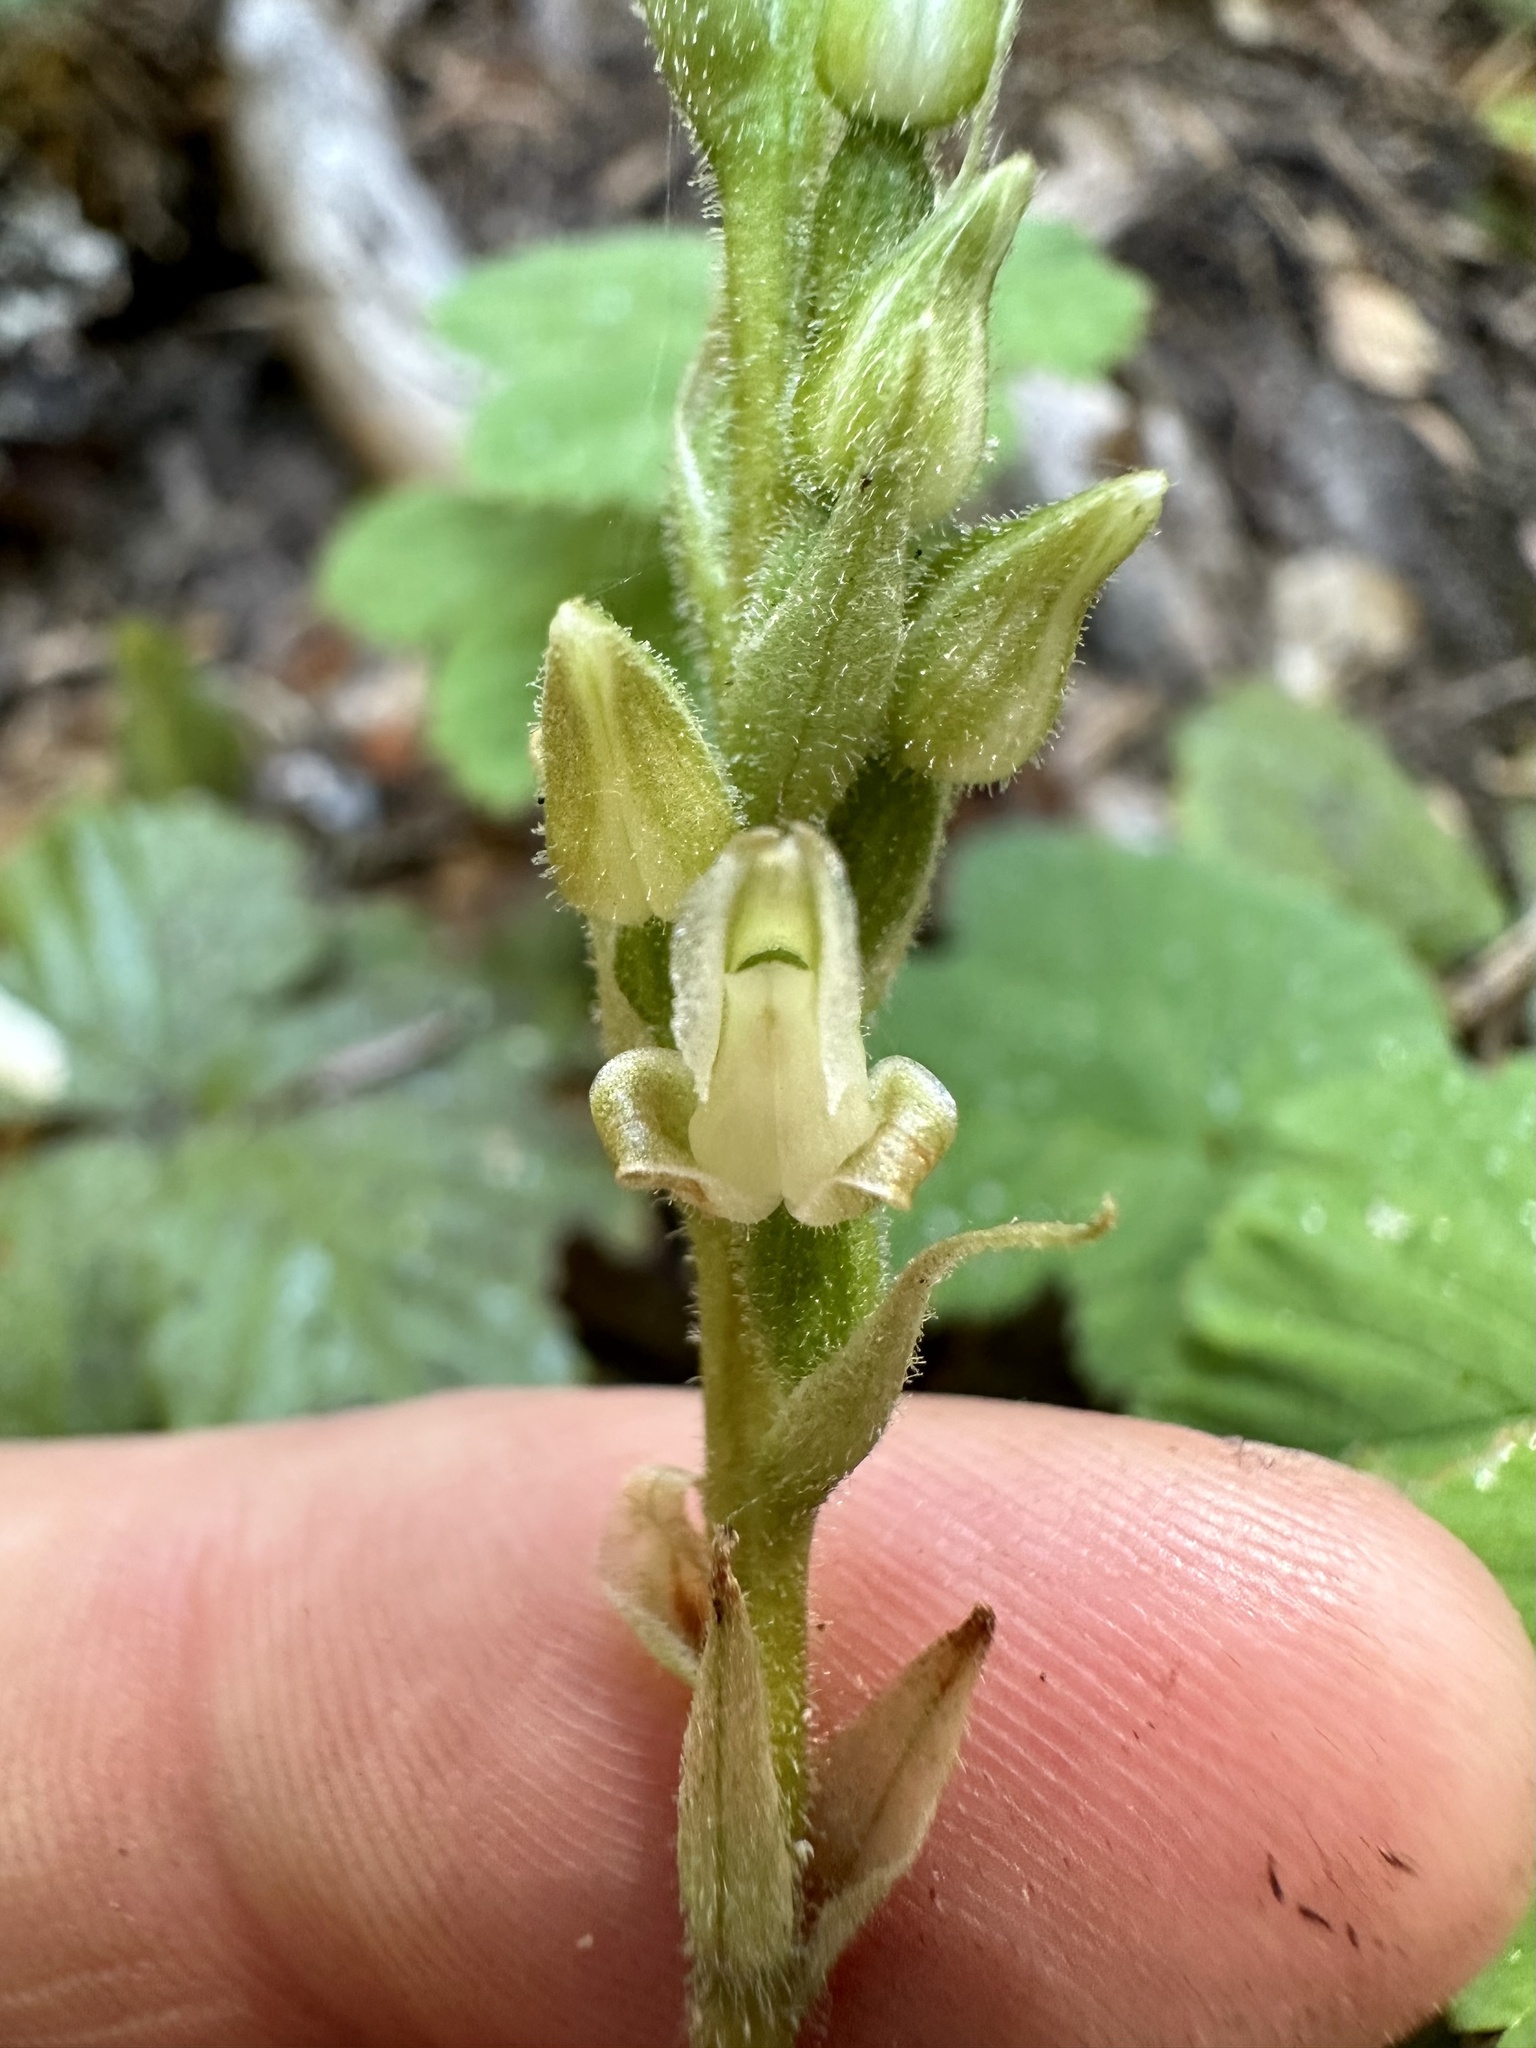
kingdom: Plantae
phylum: Tracheophyta
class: Liliopsida
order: Asparagales
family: Orchidaceae
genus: Goodyera
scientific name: Goodyera oblongifolia
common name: Giant rattlesnake-plantain
